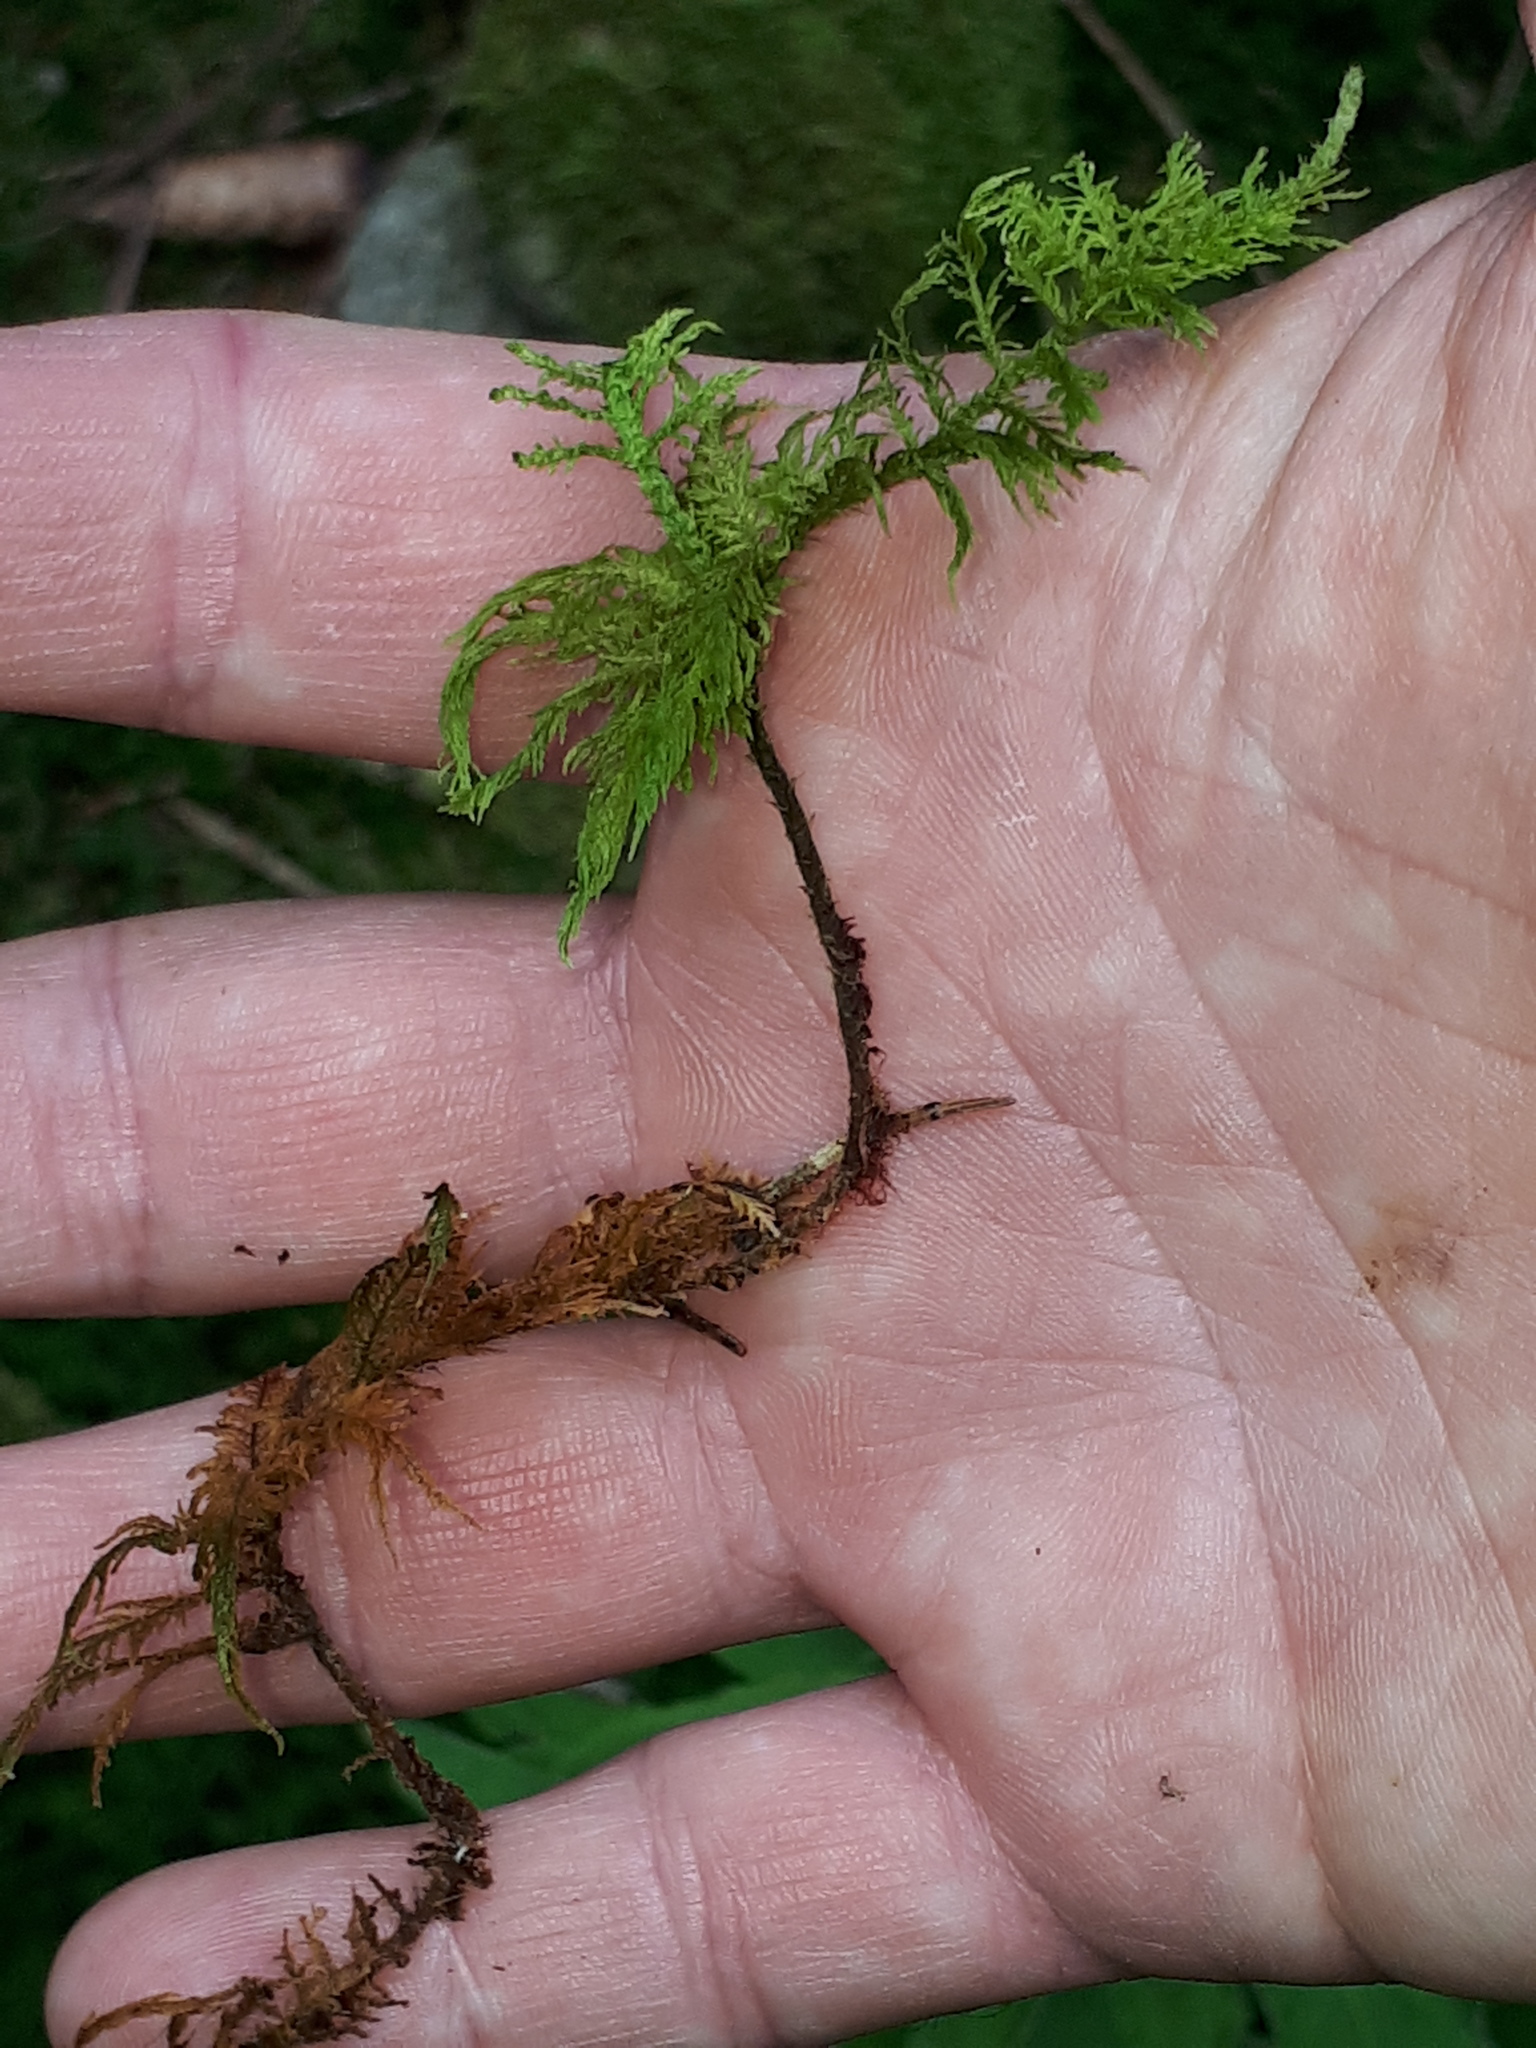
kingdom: Plantae
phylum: Bryophyta
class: Bryopsida
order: Hypnales
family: Thuidiaceae
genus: Thuidium
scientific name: Thuidium tamariscinum
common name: Common tamarisk-moss
